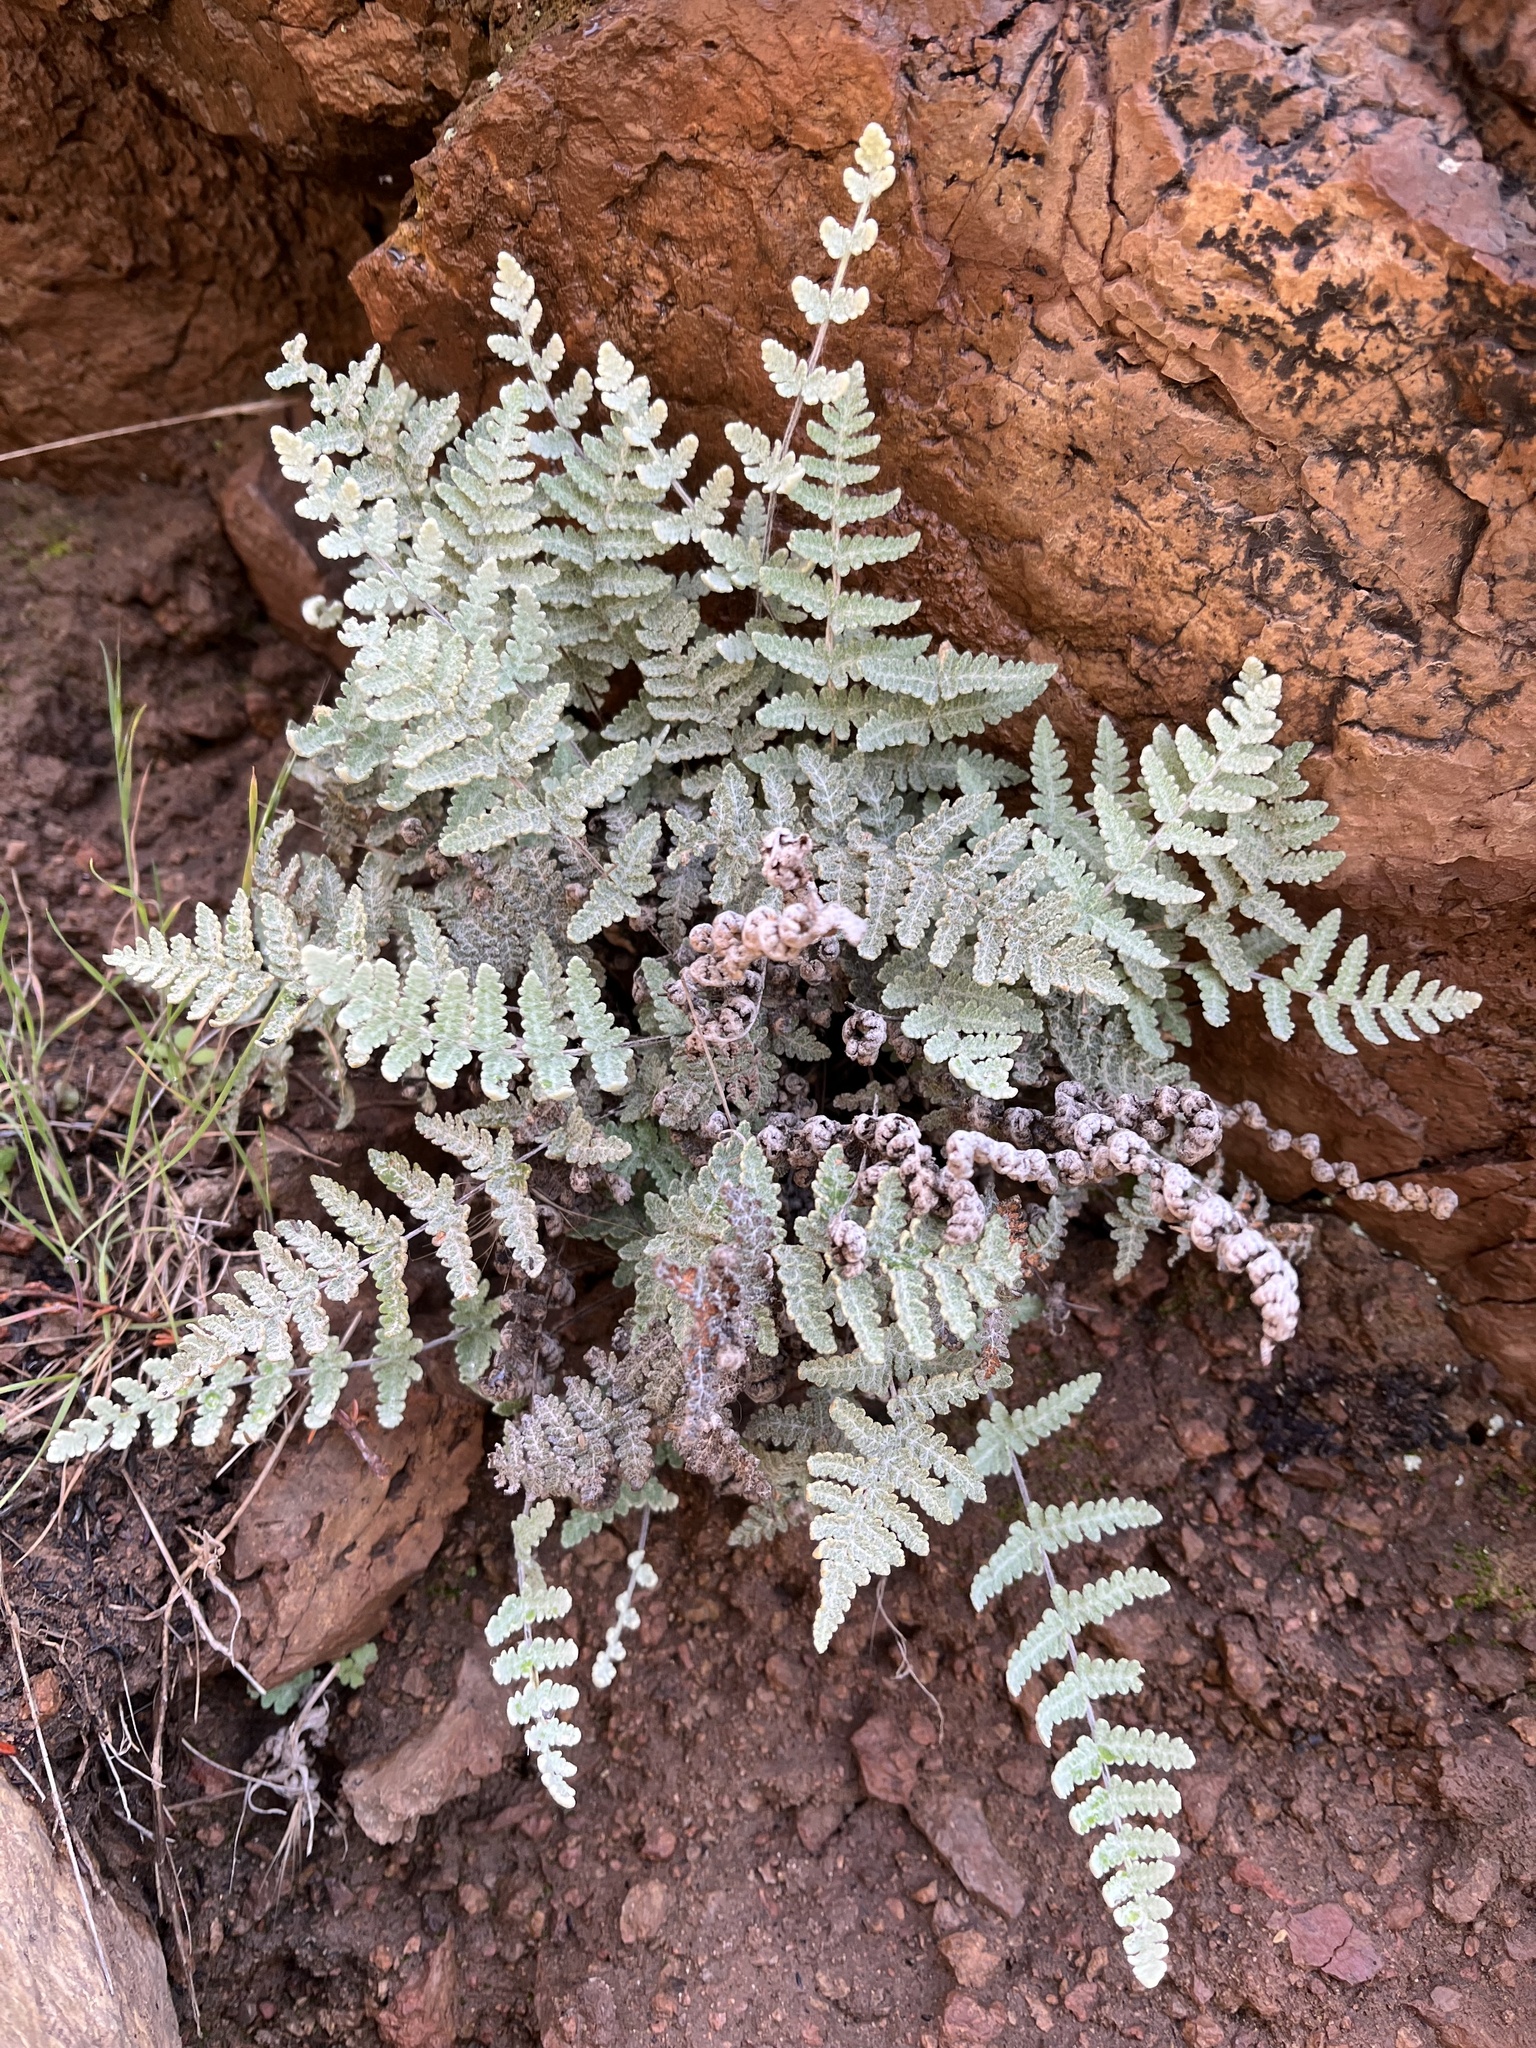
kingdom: Plantae
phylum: Tracheophyta
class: Polypodiopsida
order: Polypodiales
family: Pteridaceae
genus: Myriopteris
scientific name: Myriopteris newberryi
